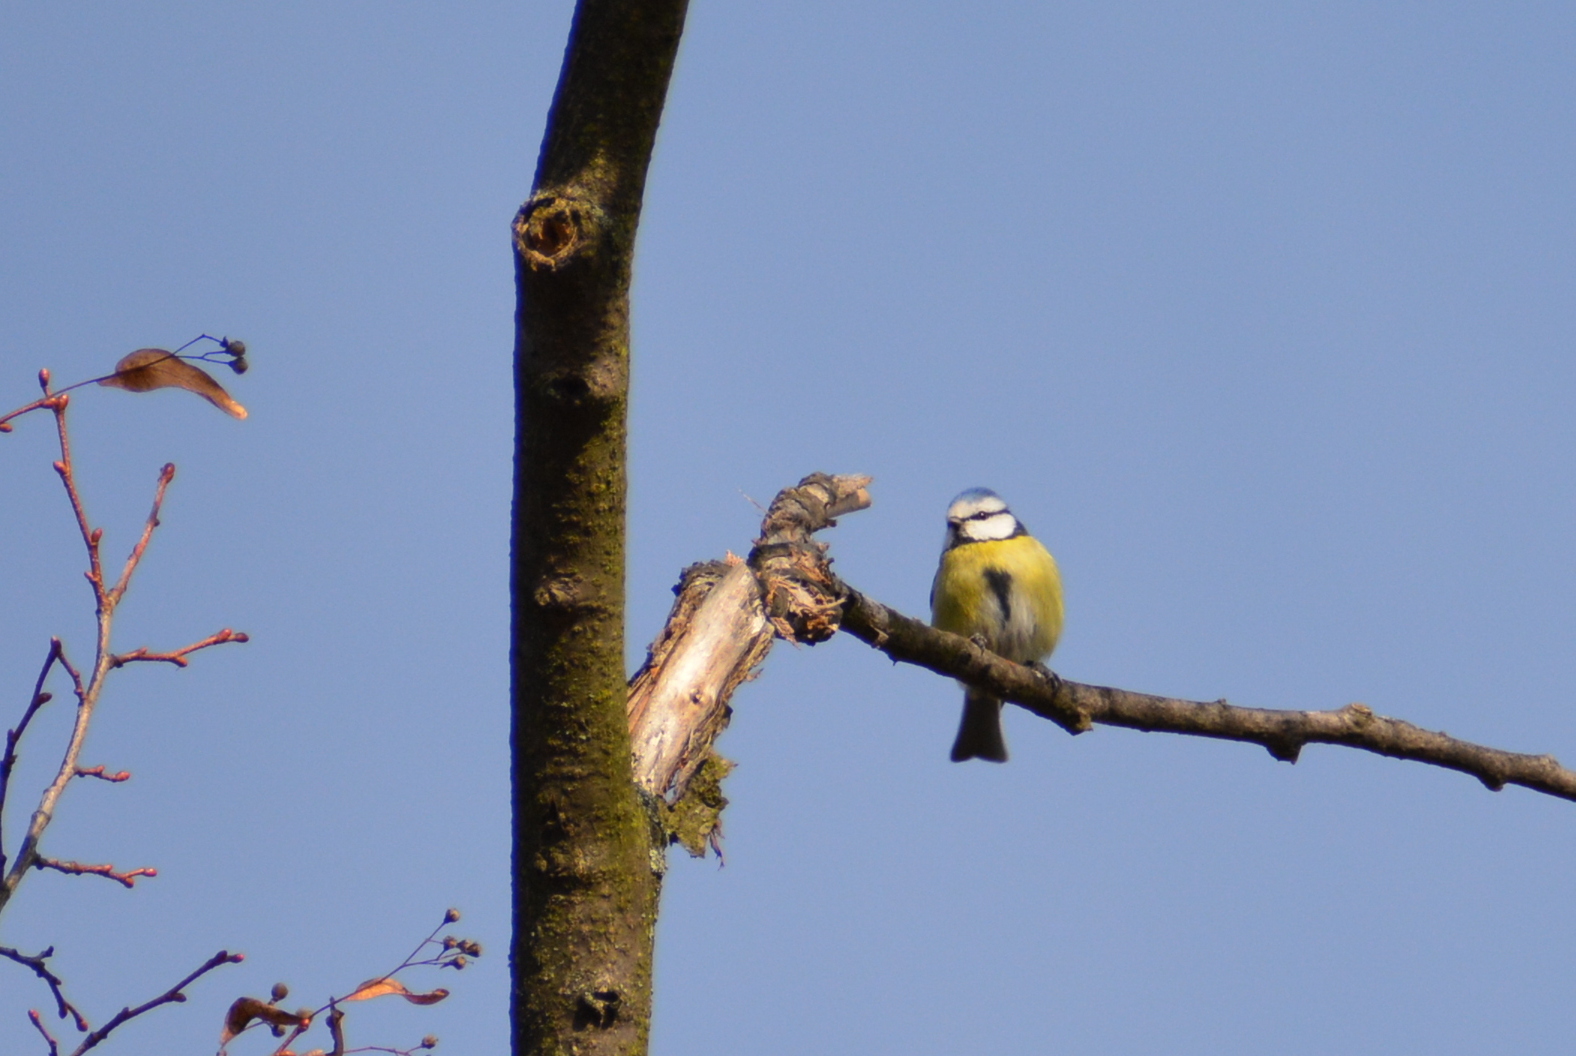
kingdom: Animalia
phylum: Chordata
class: Aves
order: Passeriformes
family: Paridae
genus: Cyanistes
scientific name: Cyanistes caeruleus
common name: Eurasian blue tit
